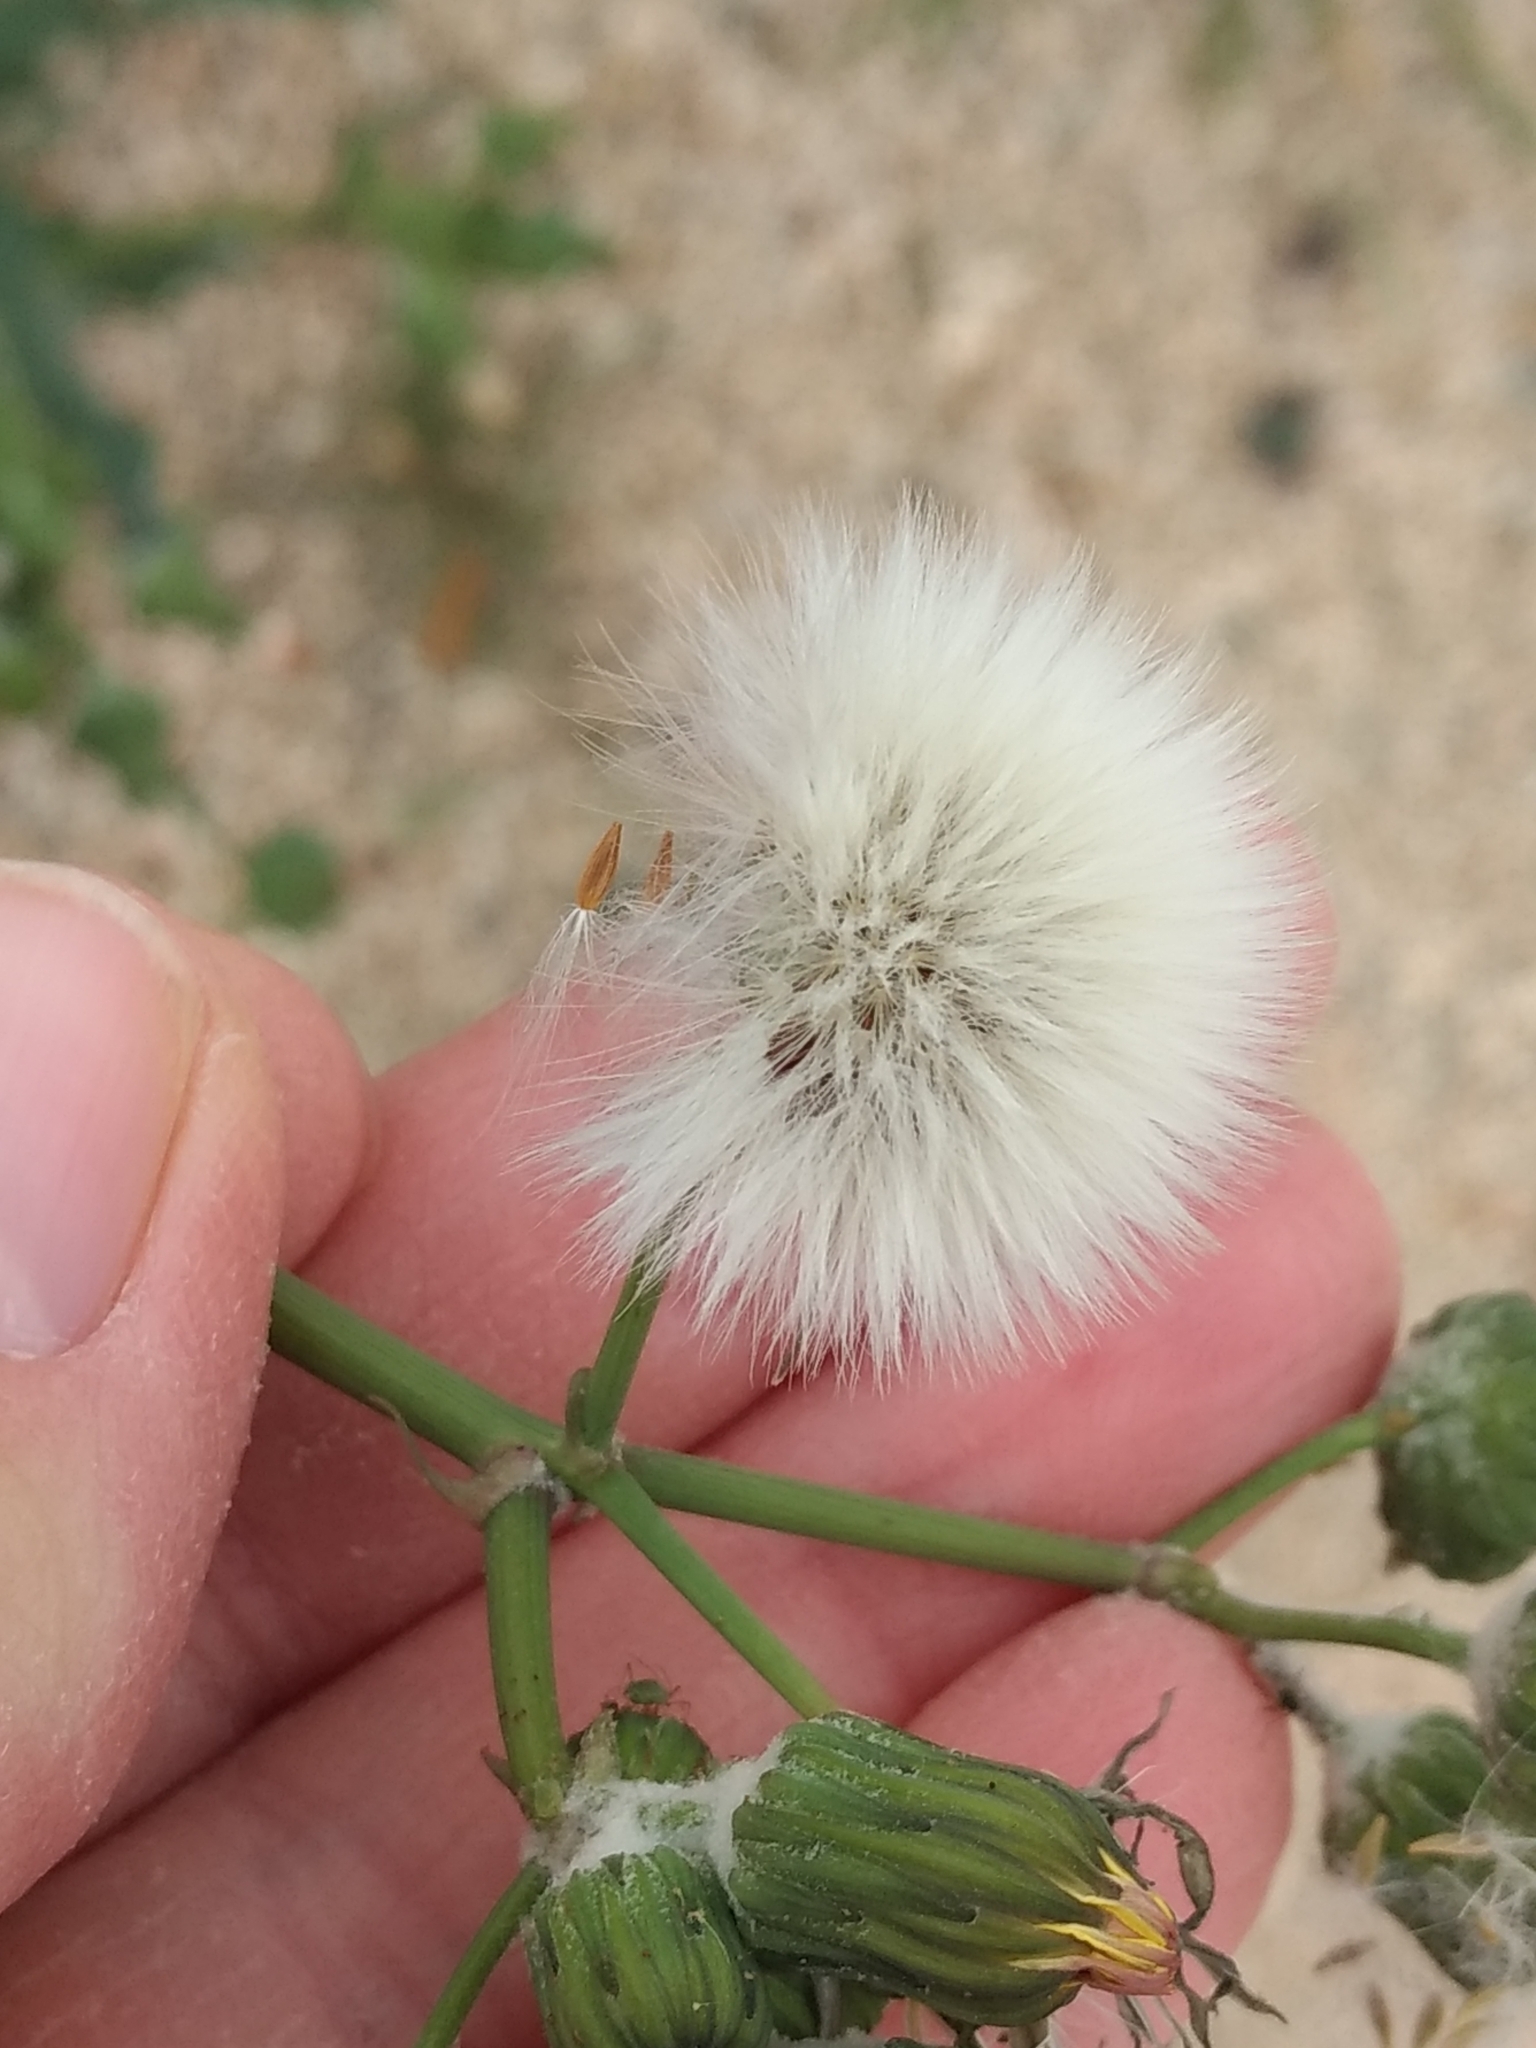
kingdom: Plantae
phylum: Tracheophyta
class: Magnoliopsida
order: Asterales
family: Asteraceae
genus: Sonchus
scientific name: Sonchus oleraceus
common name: Common sowthistle
